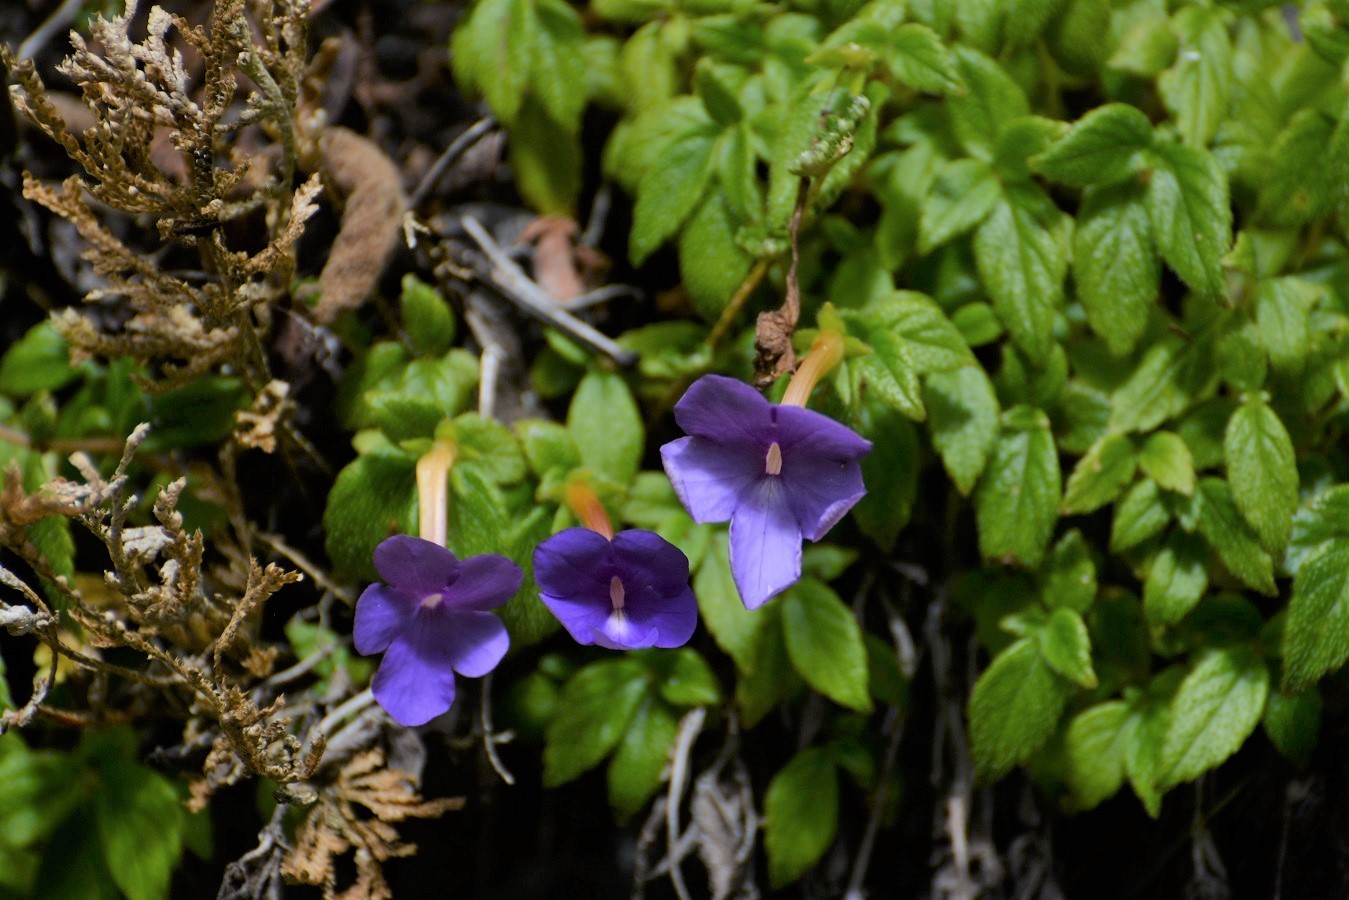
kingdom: Plantae
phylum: Tracheophyta
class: Magnoliopsida
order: Lamiales
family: Gesneriaceae
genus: Achimenes
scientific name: Achimenes longiflora
